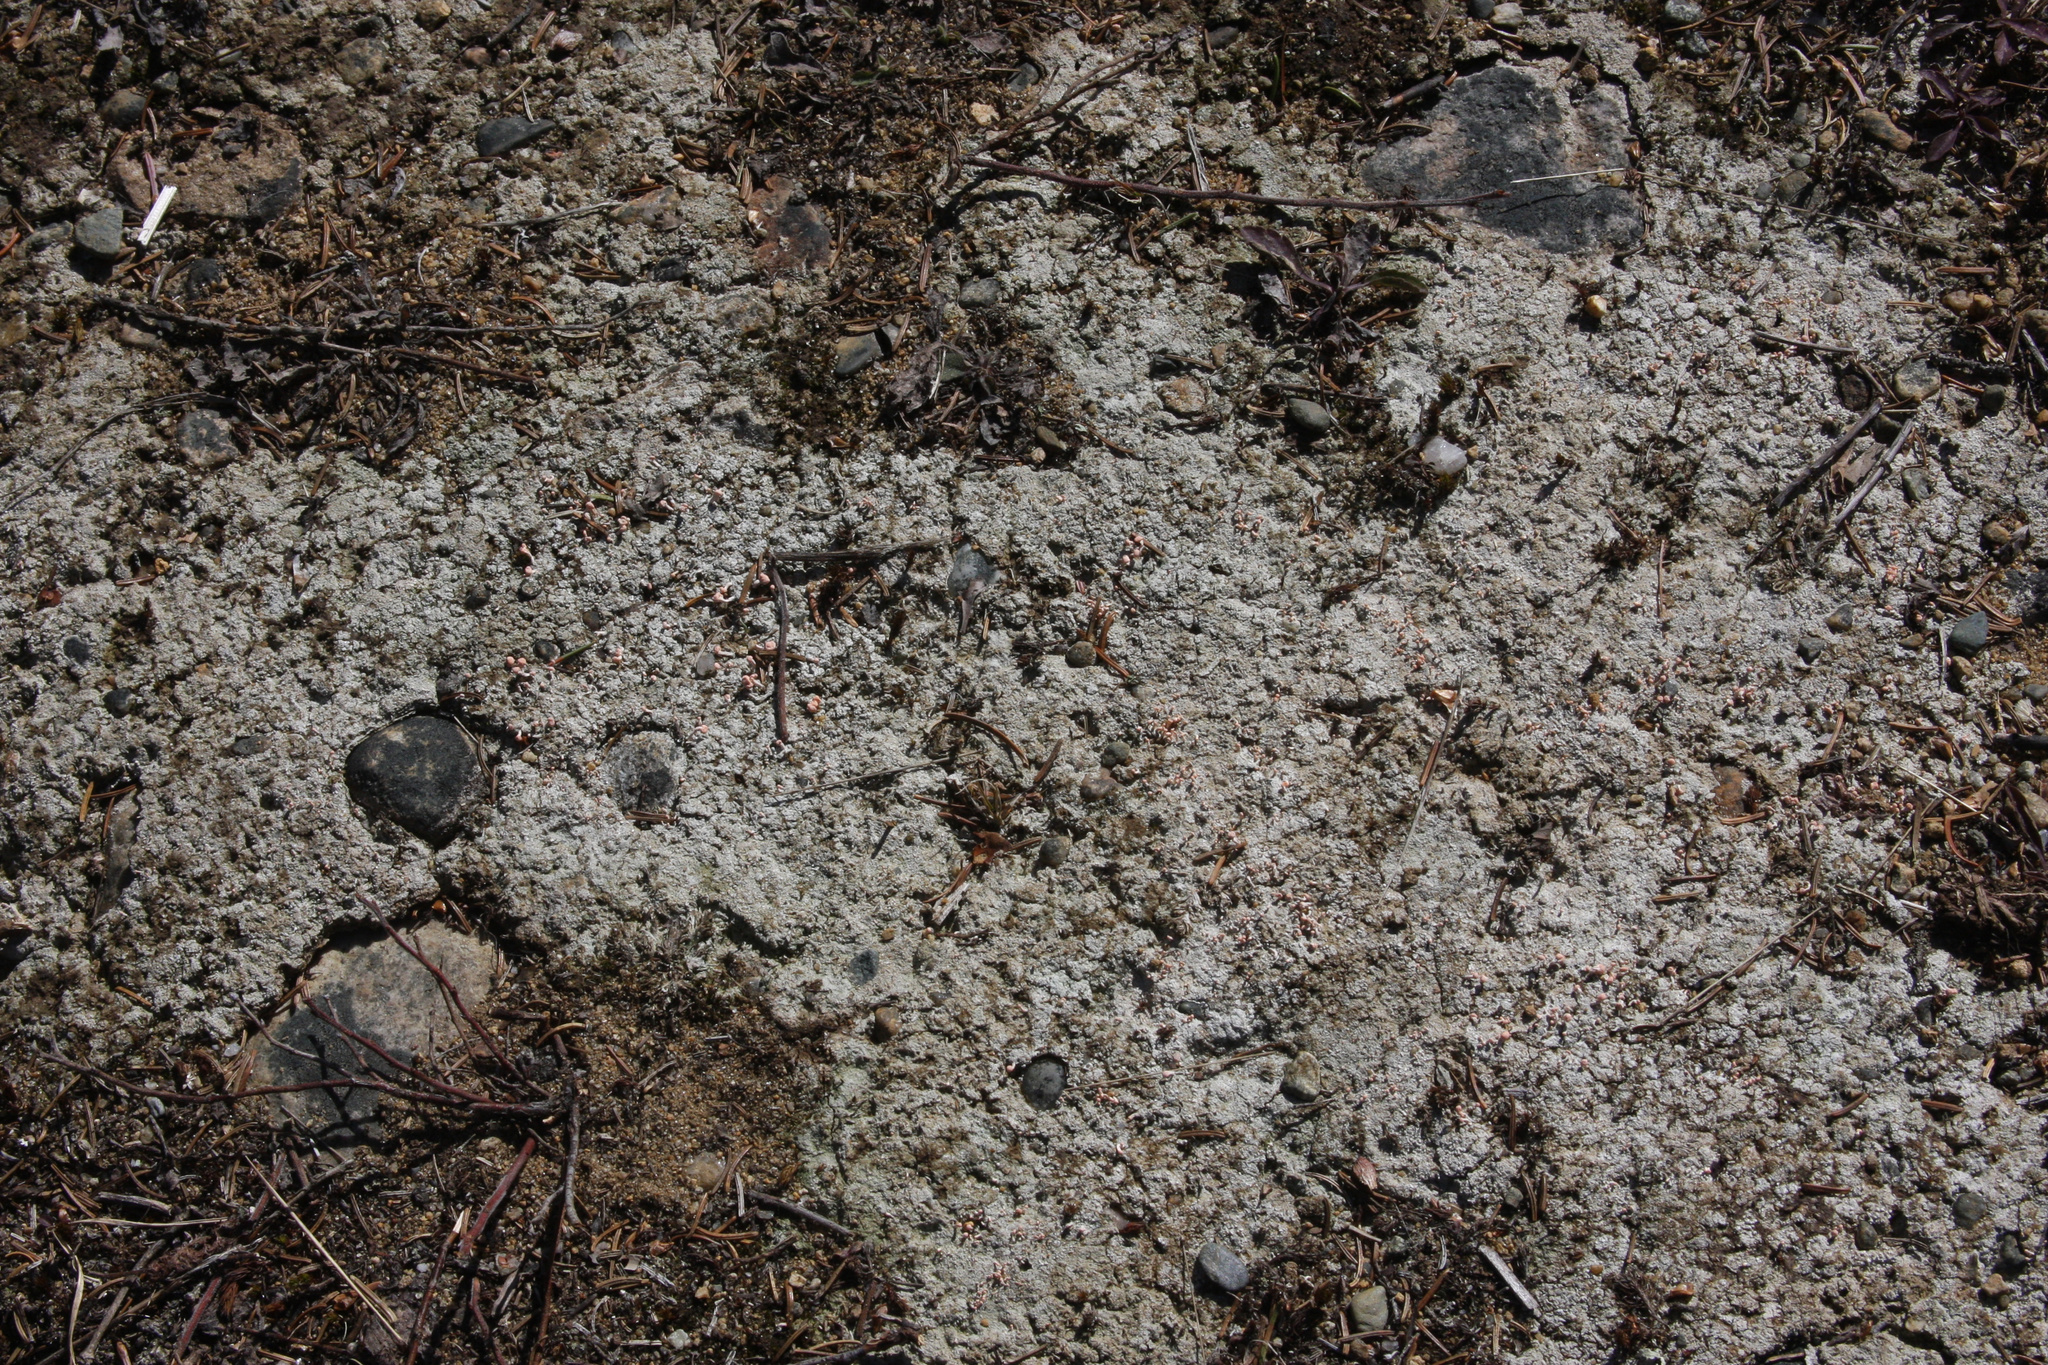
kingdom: Fungi
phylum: Ascomycota
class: Lecanoromycetes
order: Pertusariales
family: Icmadophilaceae
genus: Dibaeis
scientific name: Dibaeis baeomyces
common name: Pink earth lichen
